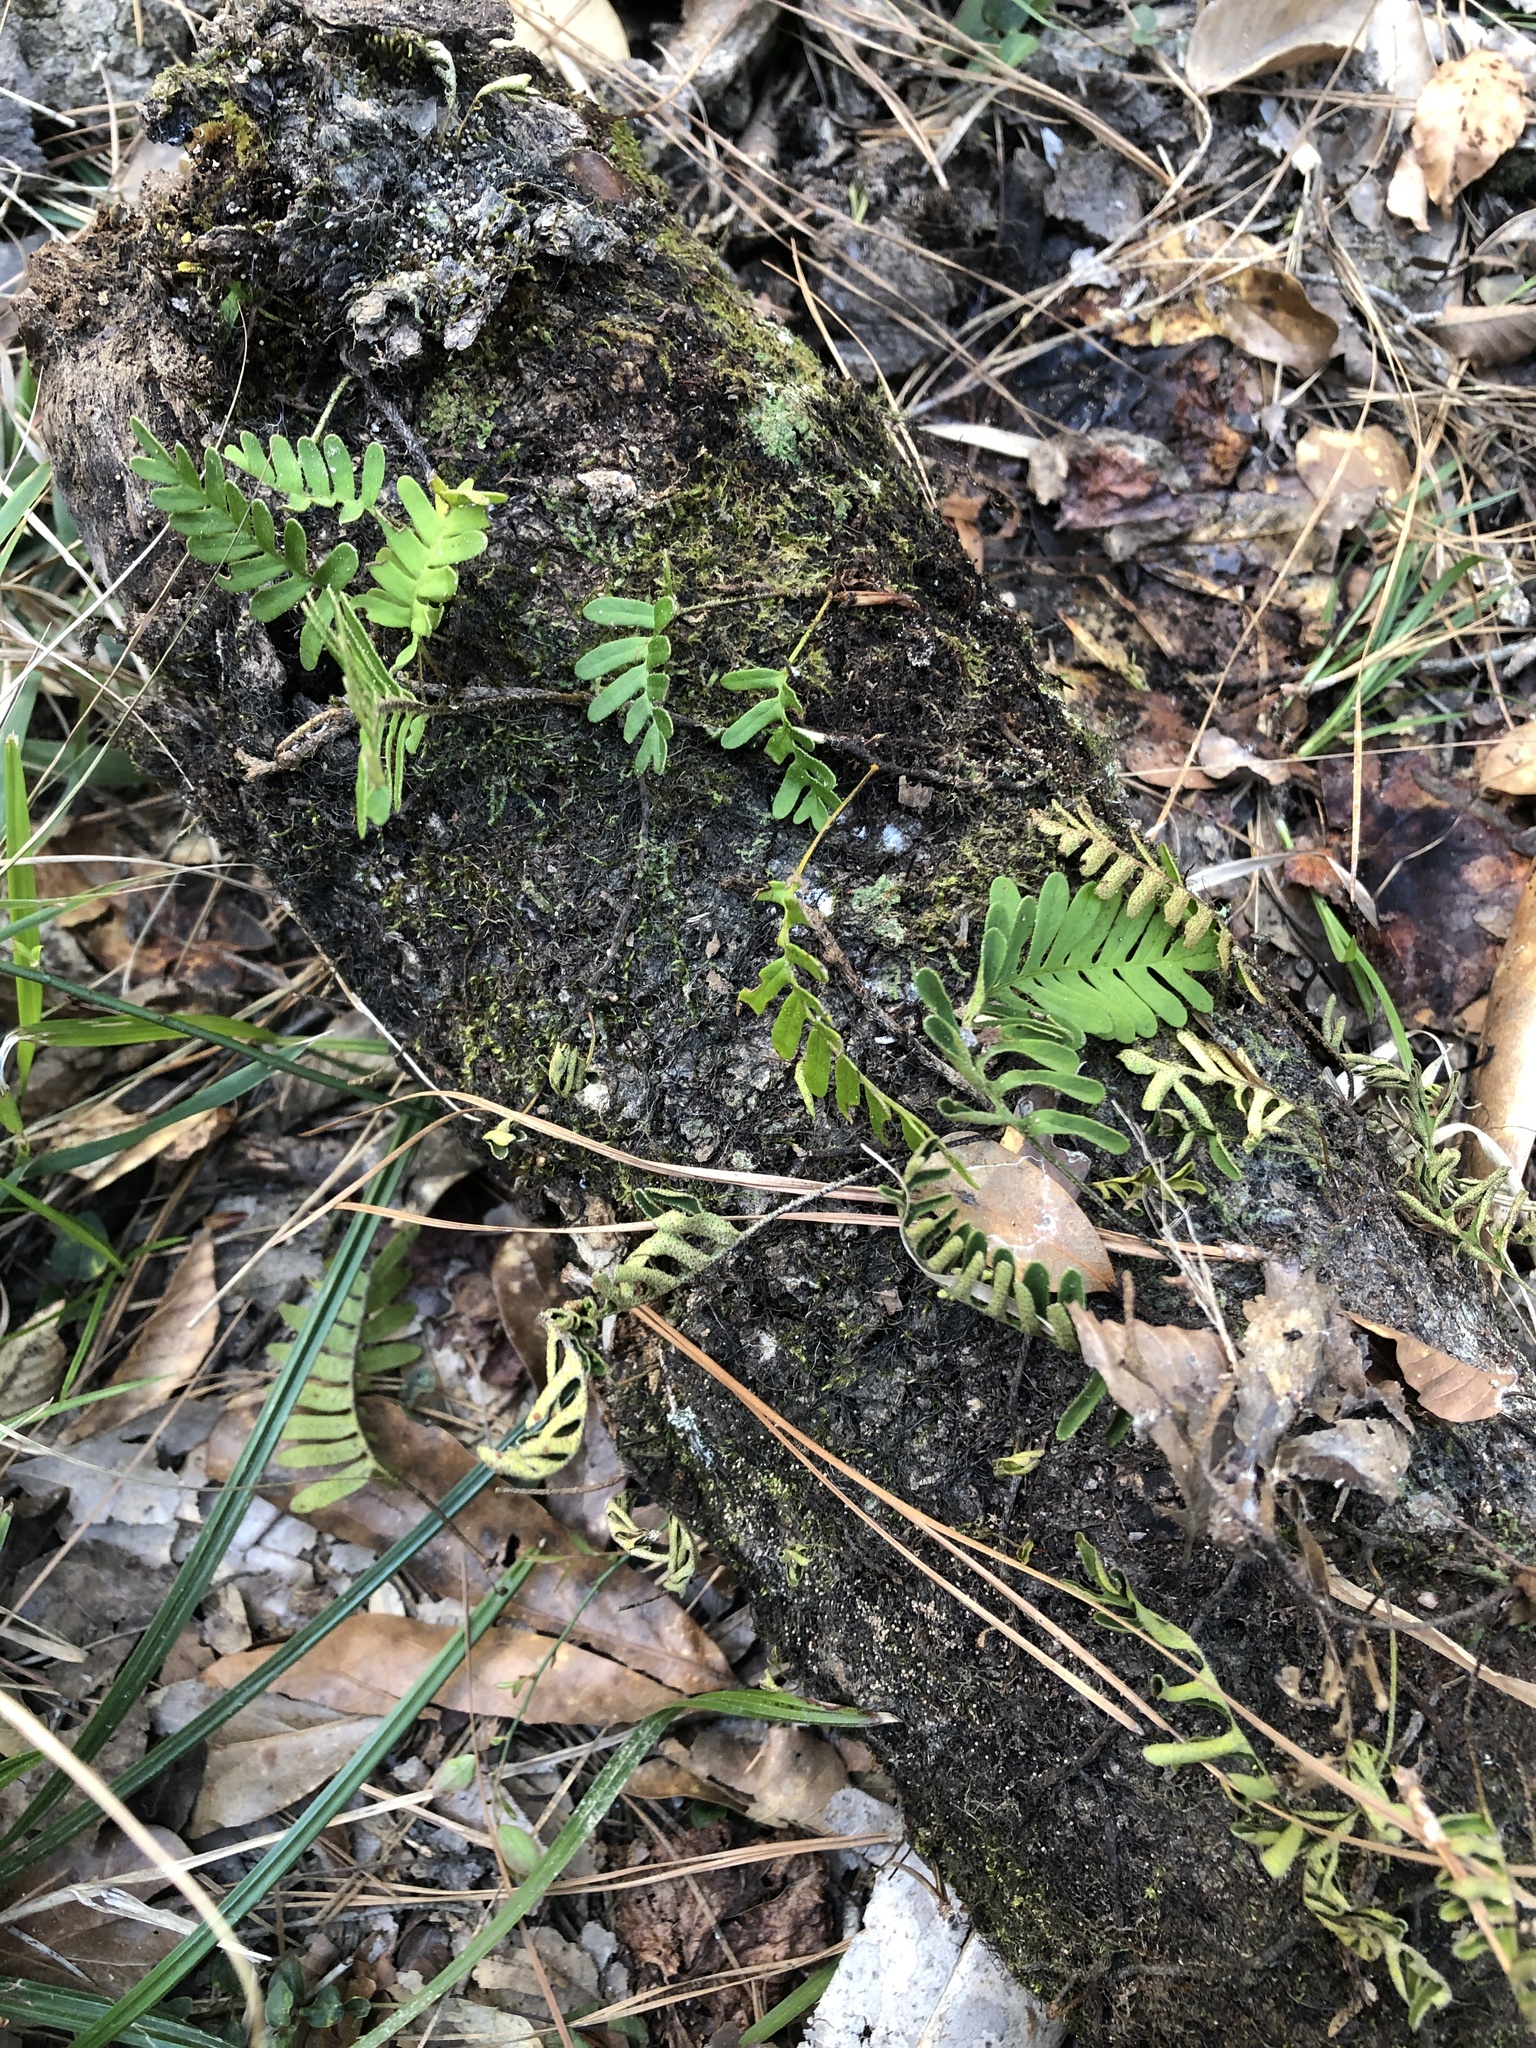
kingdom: Plantae
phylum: Tracheophyta
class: Polypodiopsida
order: Polypodiales
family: Polypodiaceae
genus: Pleopeltis
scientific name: Pleopeltis michauxiana
